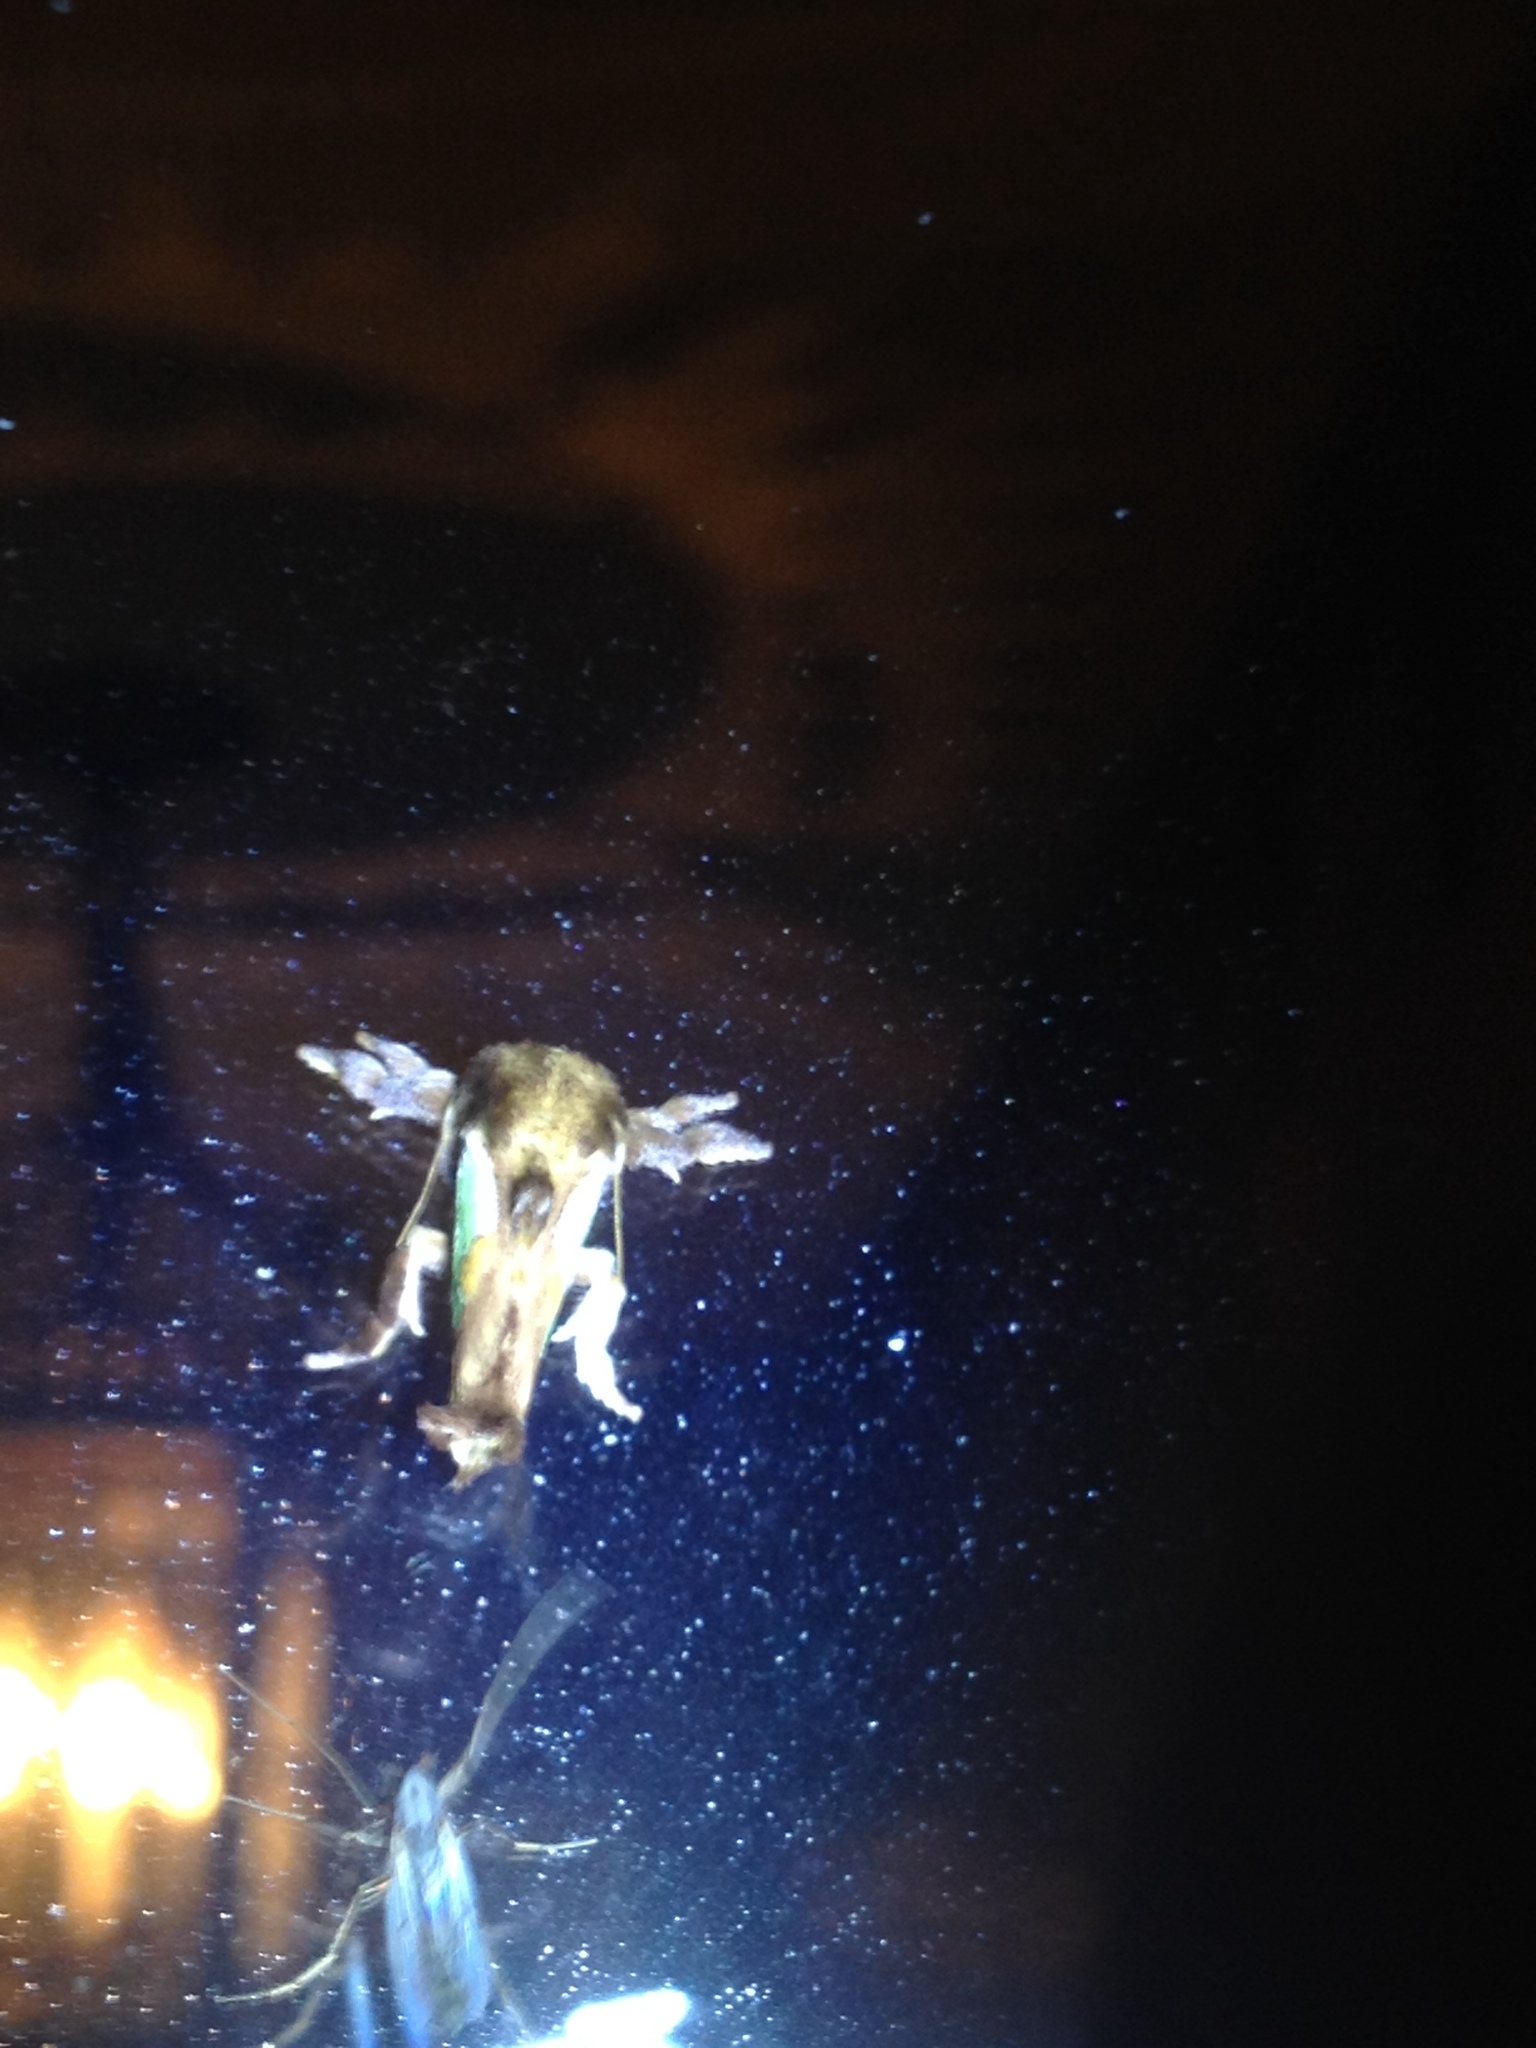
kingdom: Animalia
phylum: Arthropoda
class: Insecta
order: Lepidoptera
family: Limacodidae
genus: Euclea
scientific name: Euclea delphinii
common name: Spiny oak-slug moth
